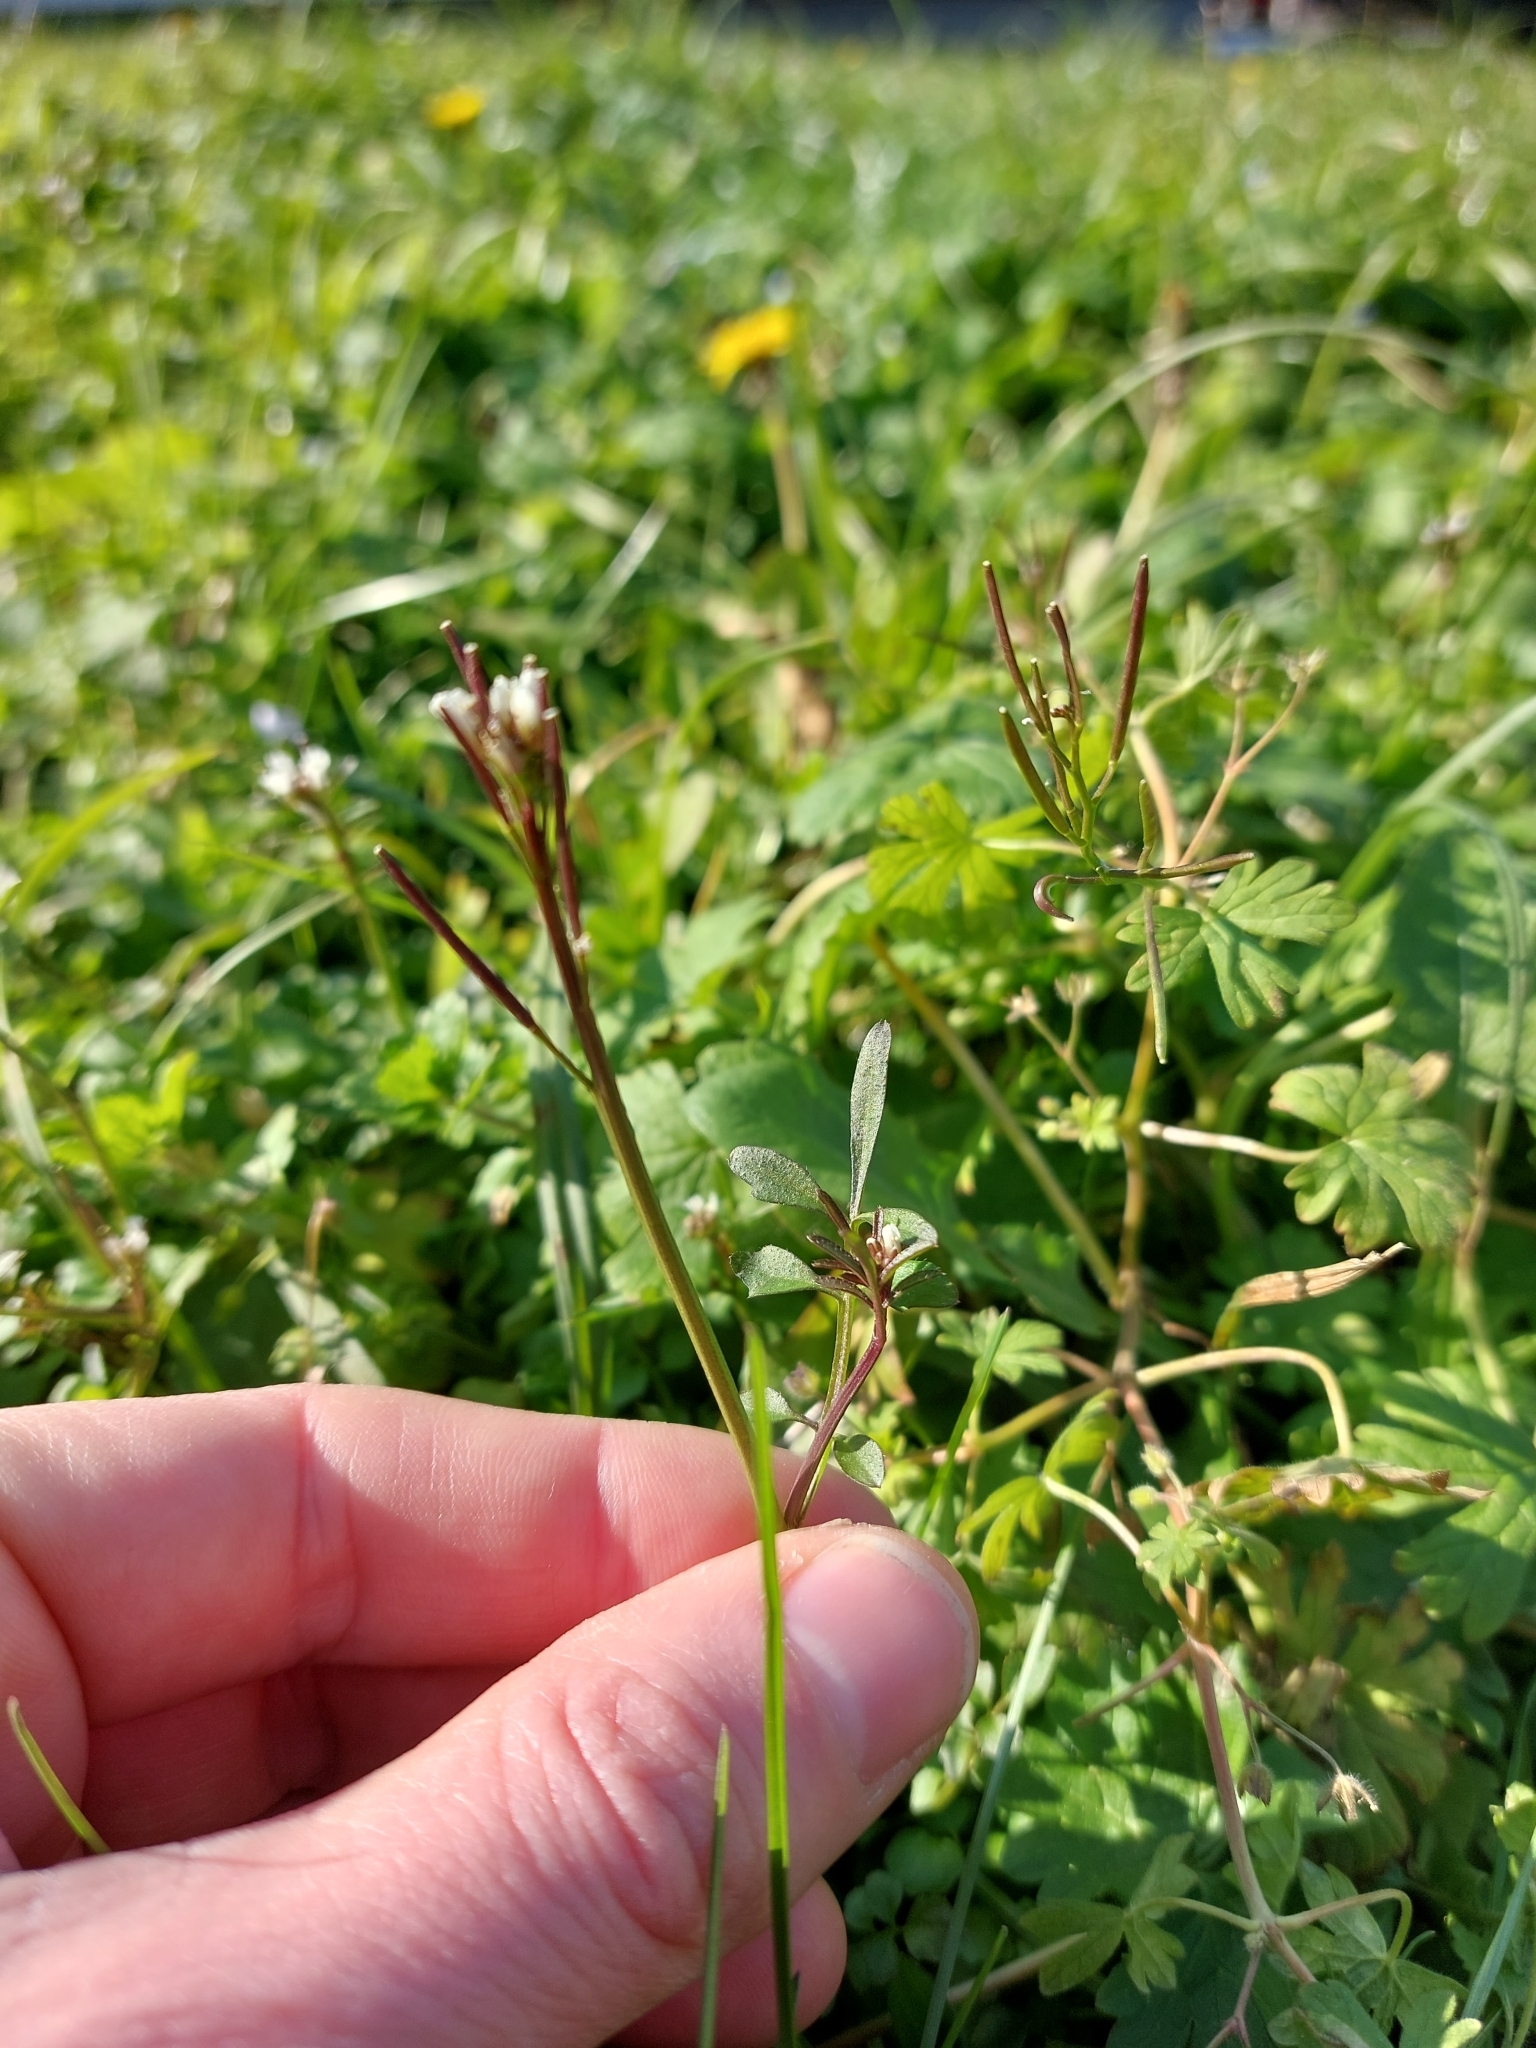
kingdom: Plantae
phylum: Tracheophyta
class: Magnoliopsida
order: Brassicales
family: Brassicaceae
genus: Cardamine
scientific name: Cardamine hirsuta
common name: Hairy bittercress
